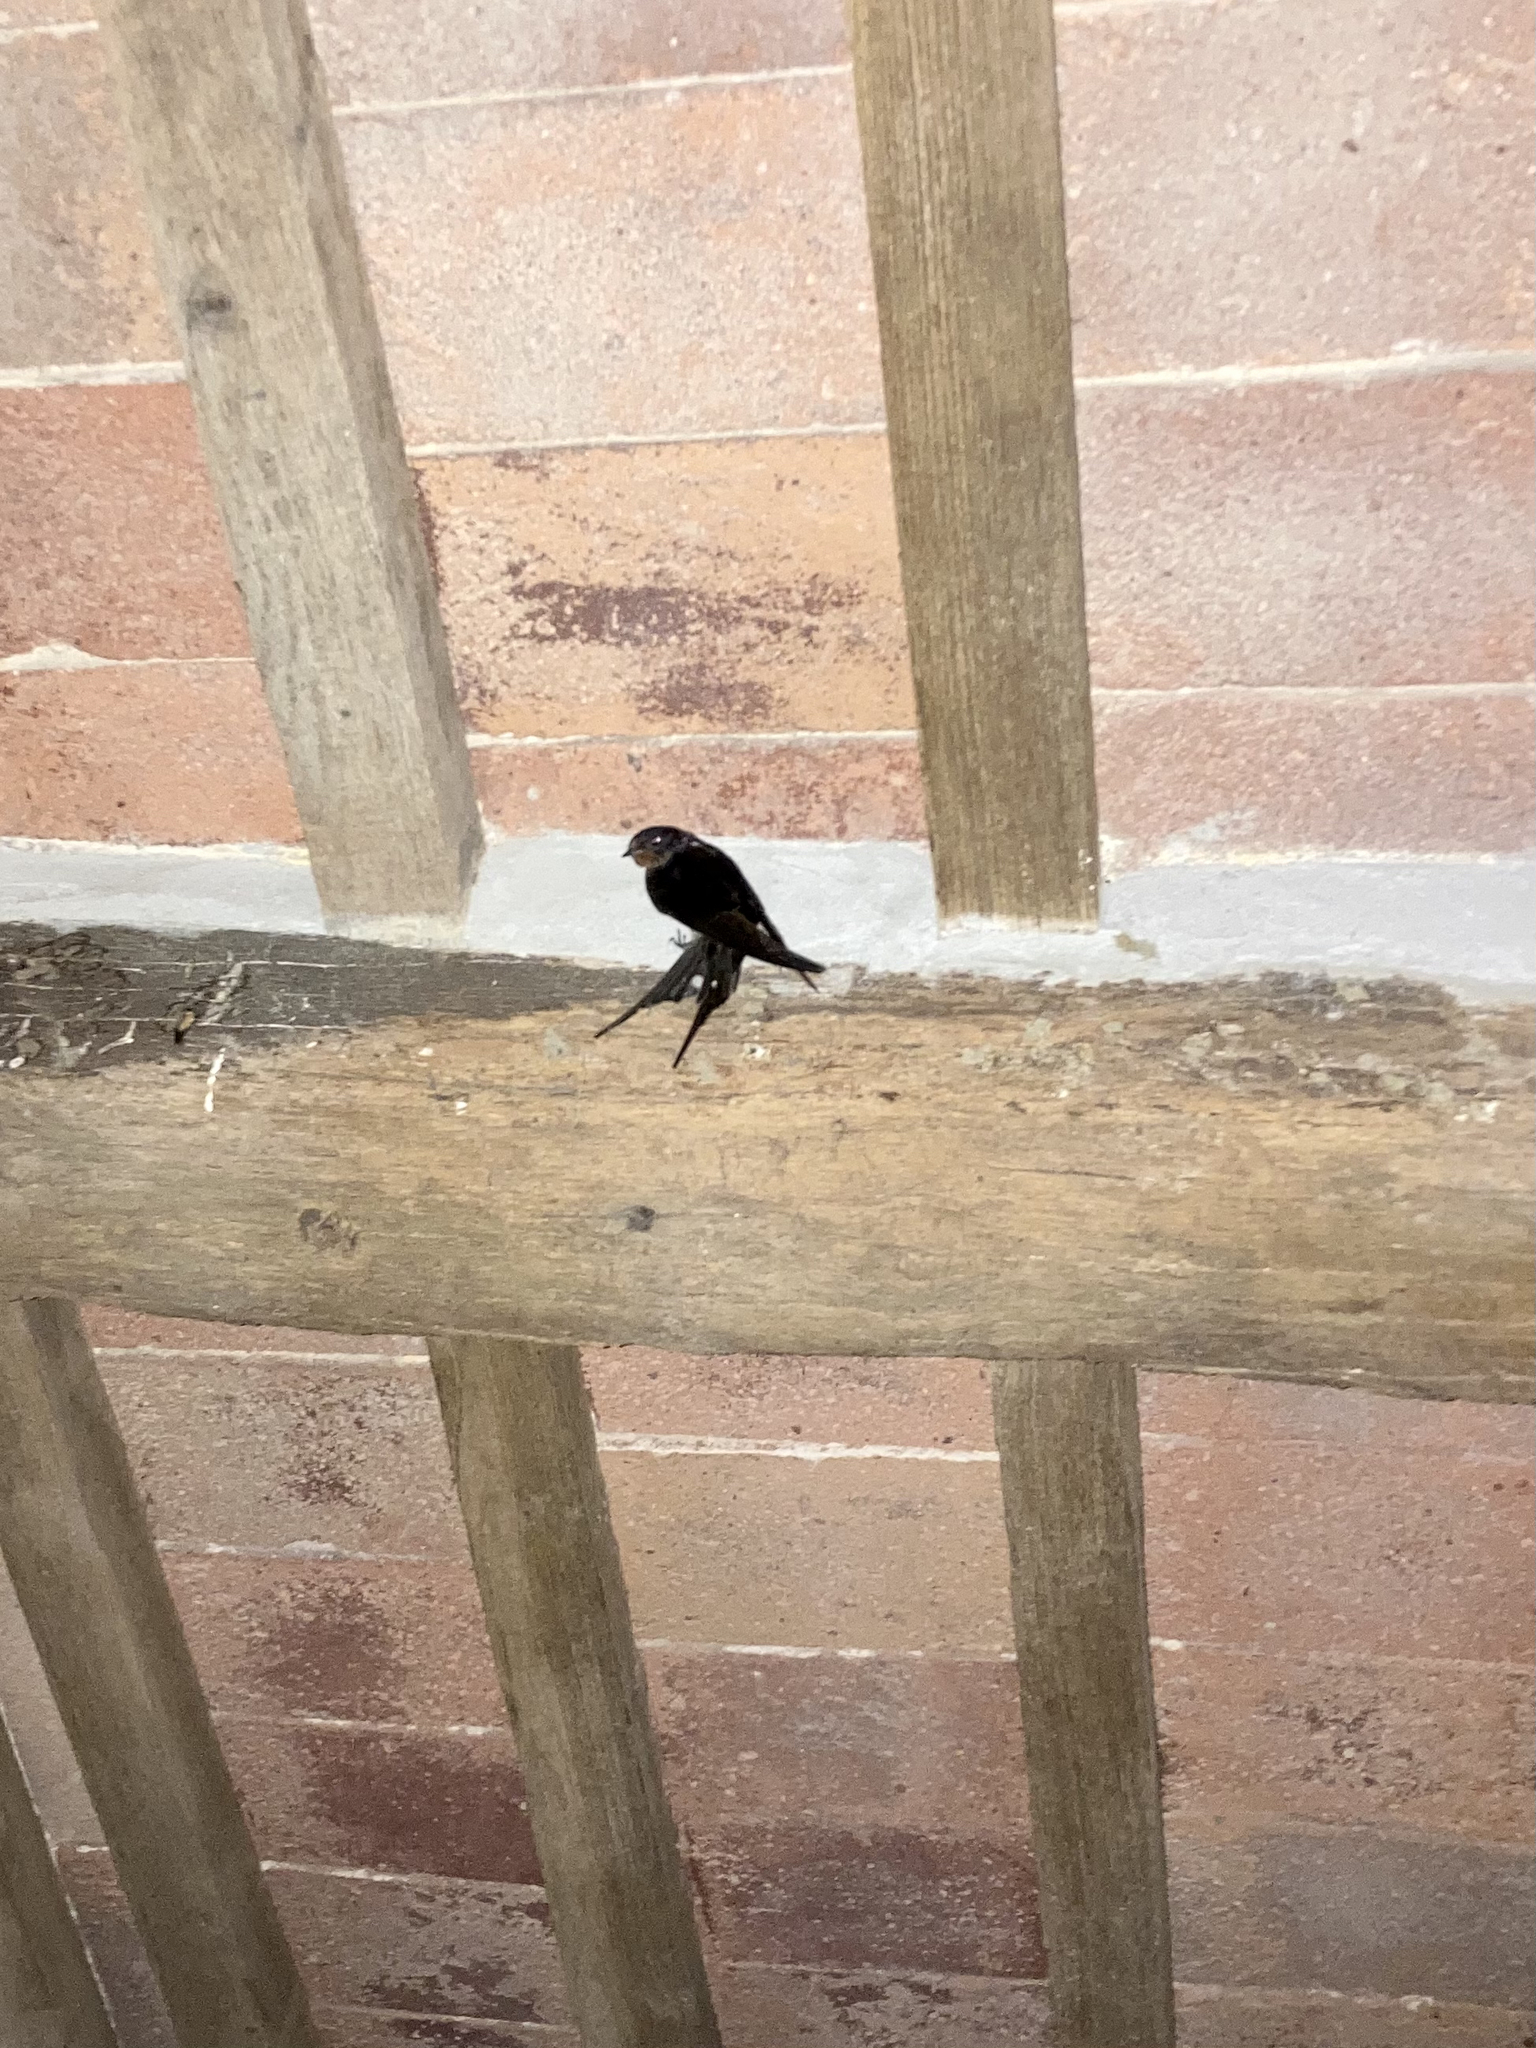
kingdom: Animalia
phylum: Chordata
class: Aves
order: Passeriformes
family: Hirundinidae
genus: Hirundo
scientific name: Hirundo rustica
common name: Barn swallow
